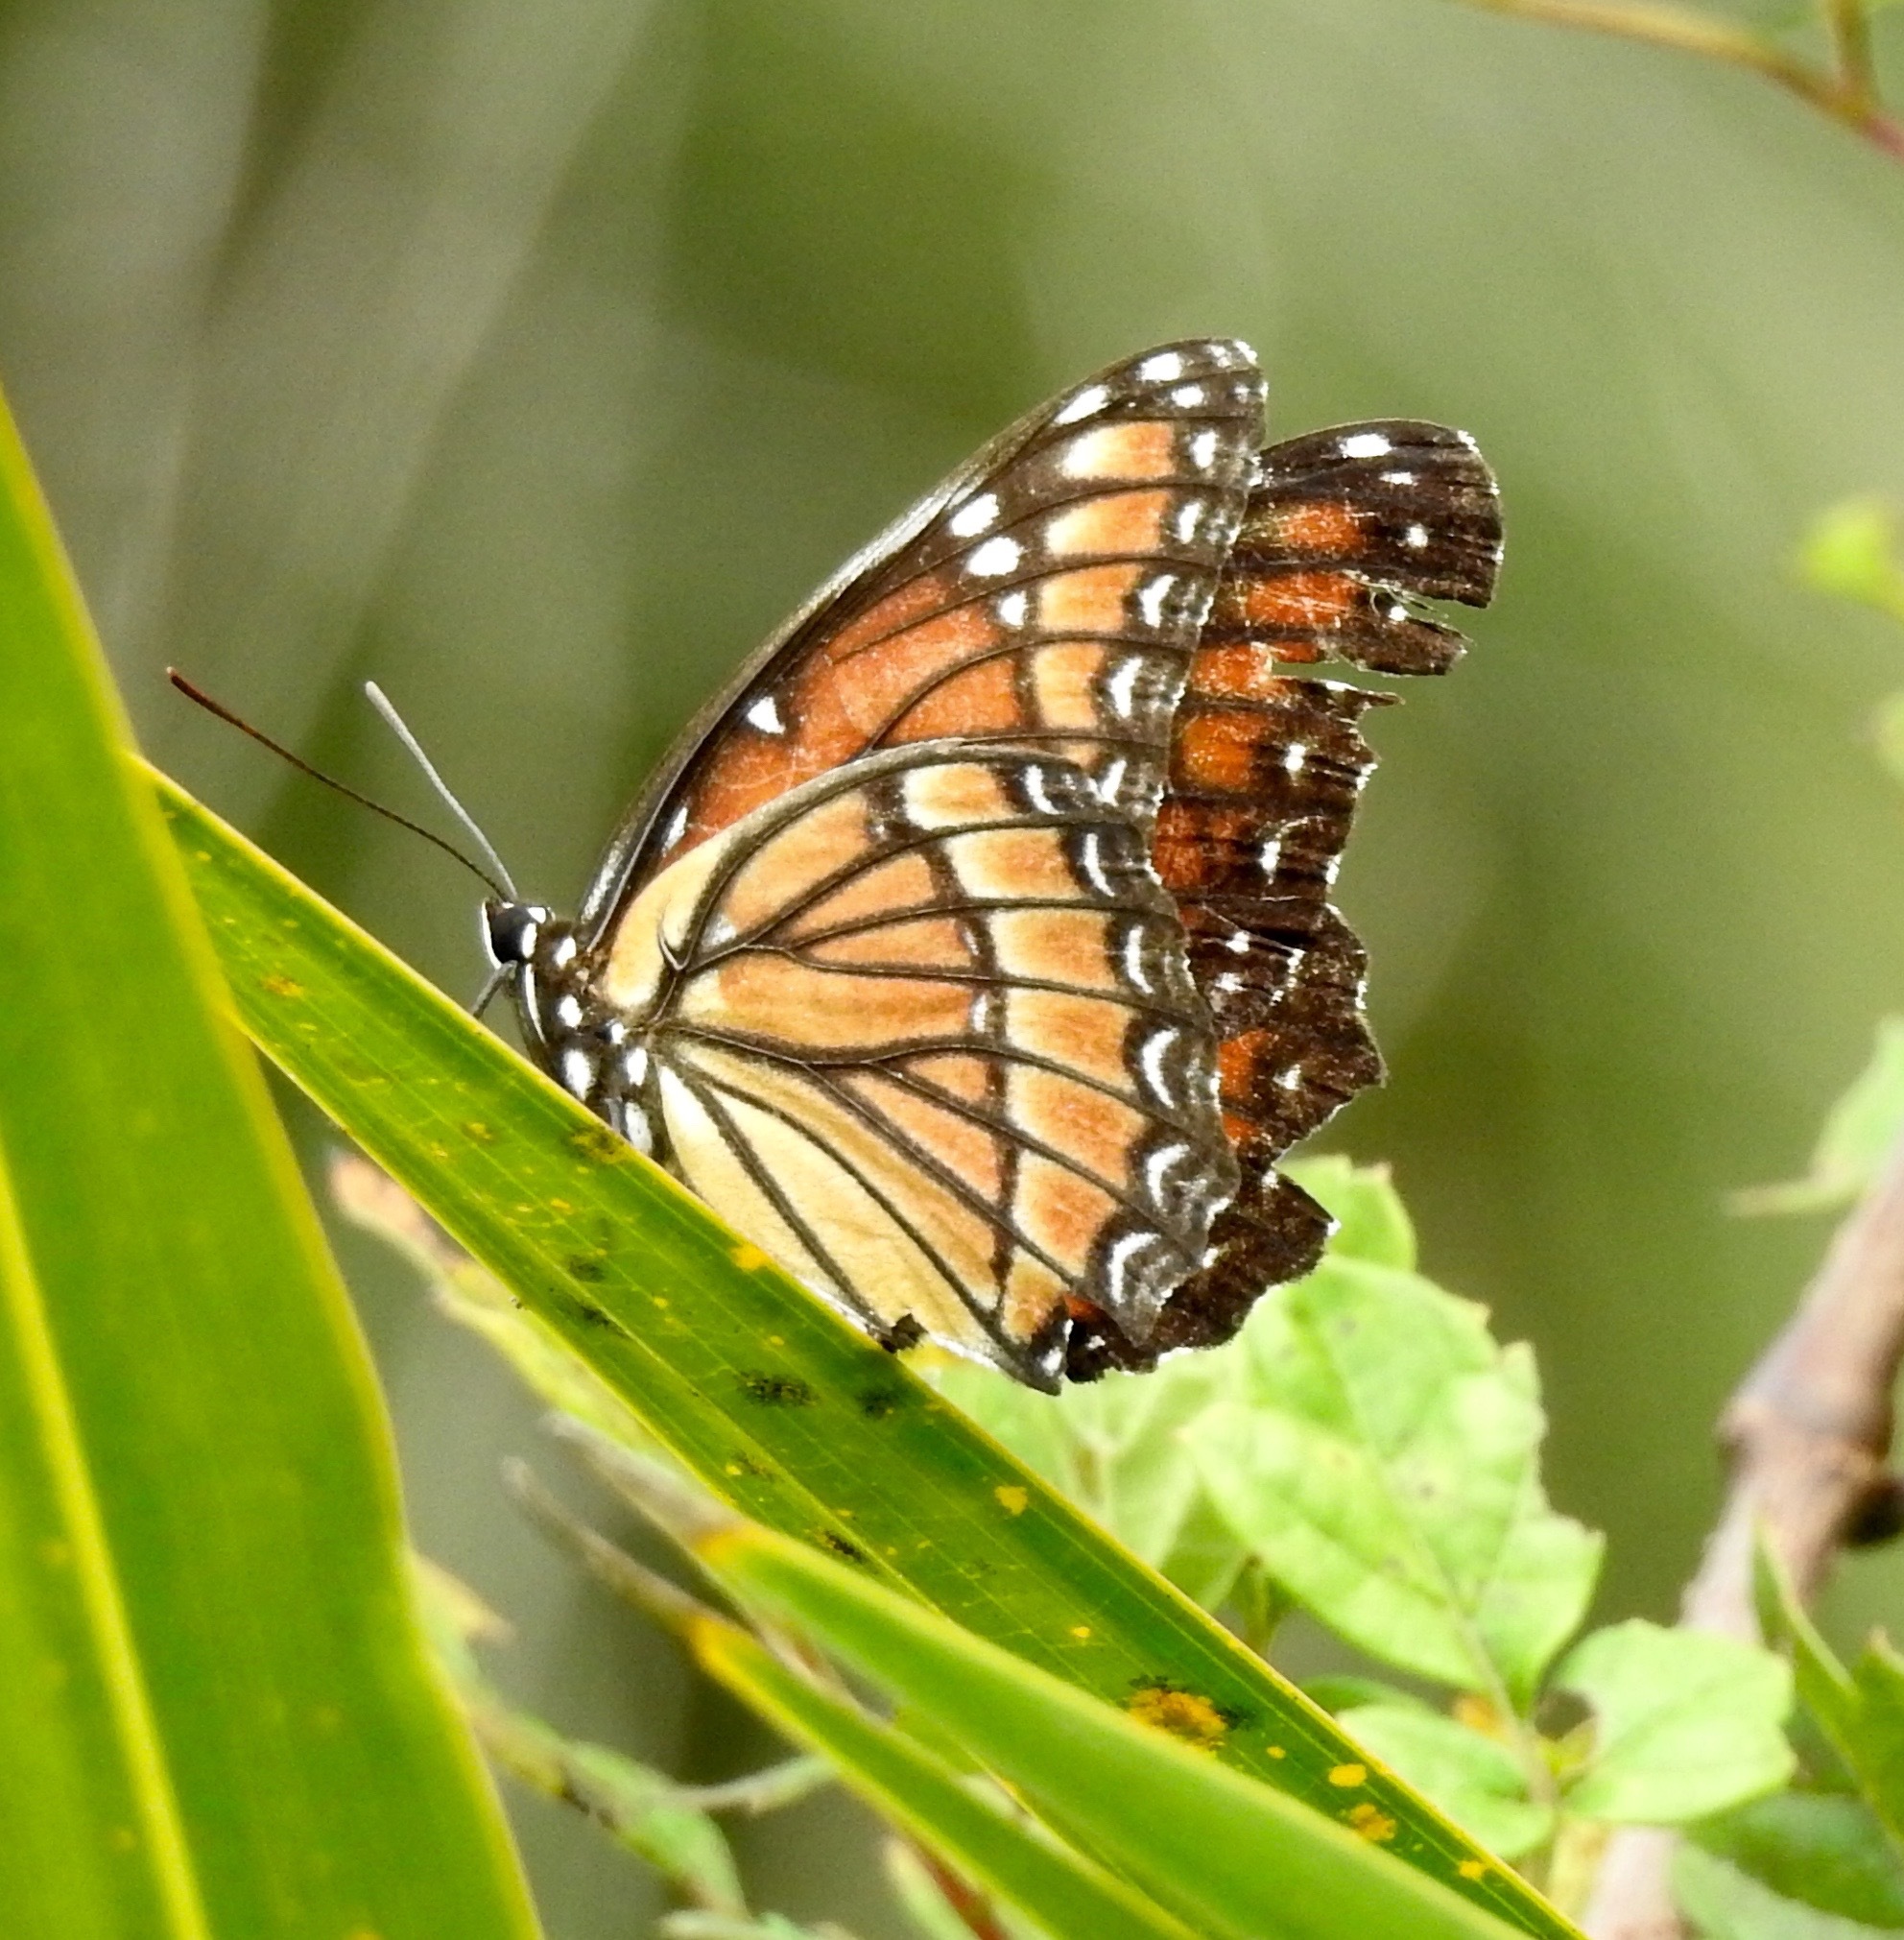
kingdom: Animalia
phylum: Arthropoda
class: Insecta
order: Lepidoptera
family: Nymphalidae
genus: Limenitis
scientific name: Limenitis archippus
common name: Viceroy
